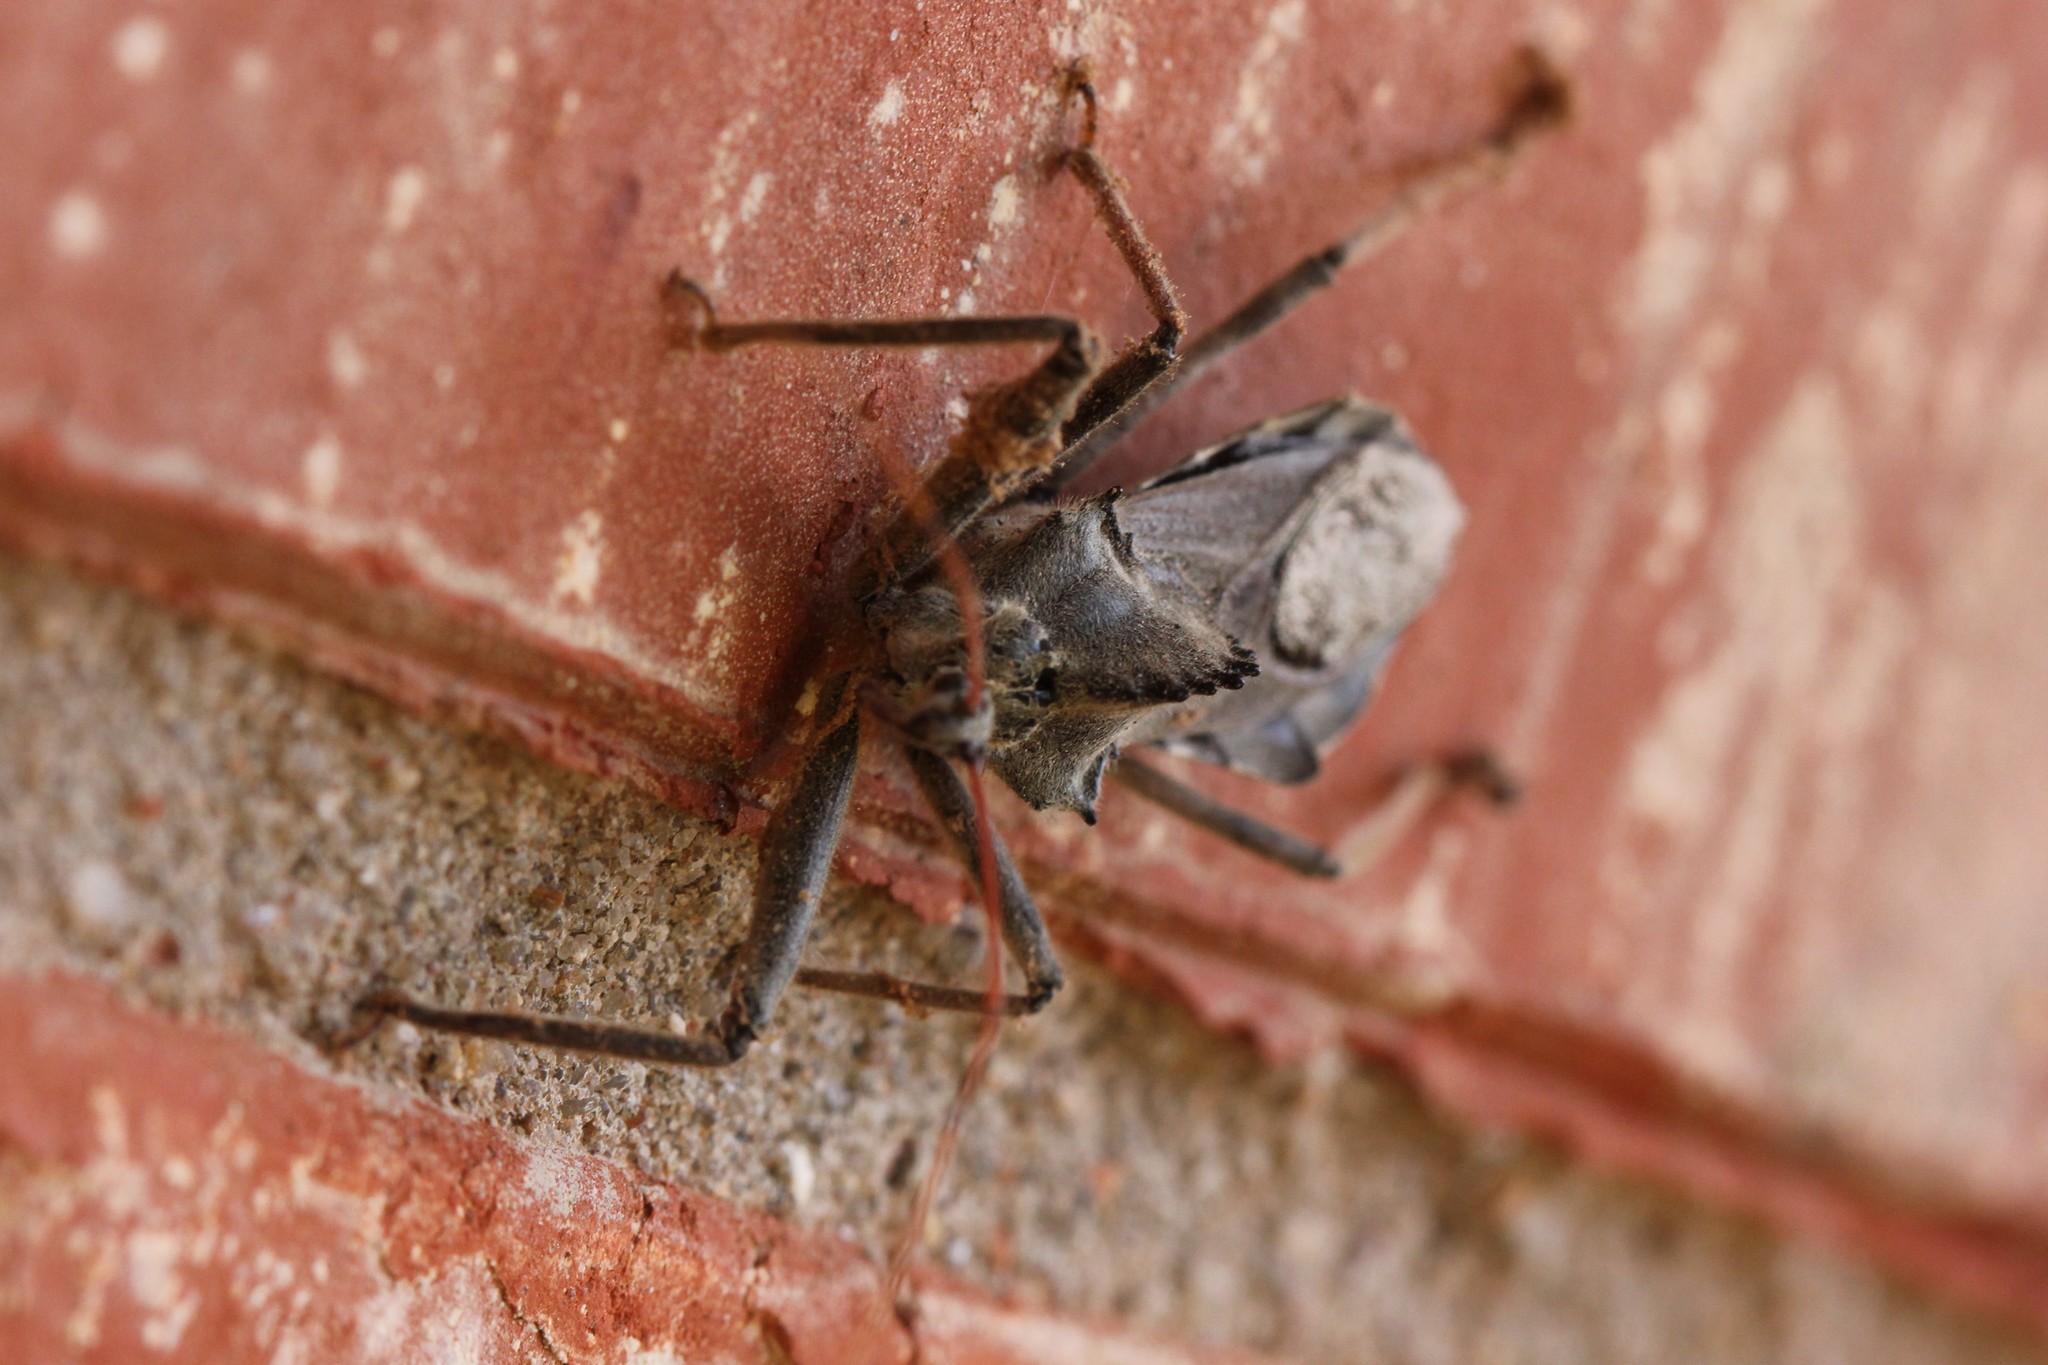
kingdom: Animalia
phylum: Arthropoda
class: Insecta
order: Hemiptera
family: Reduviidae
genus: Arilus
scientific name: Arilus cristatus
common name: North american wheel bug
